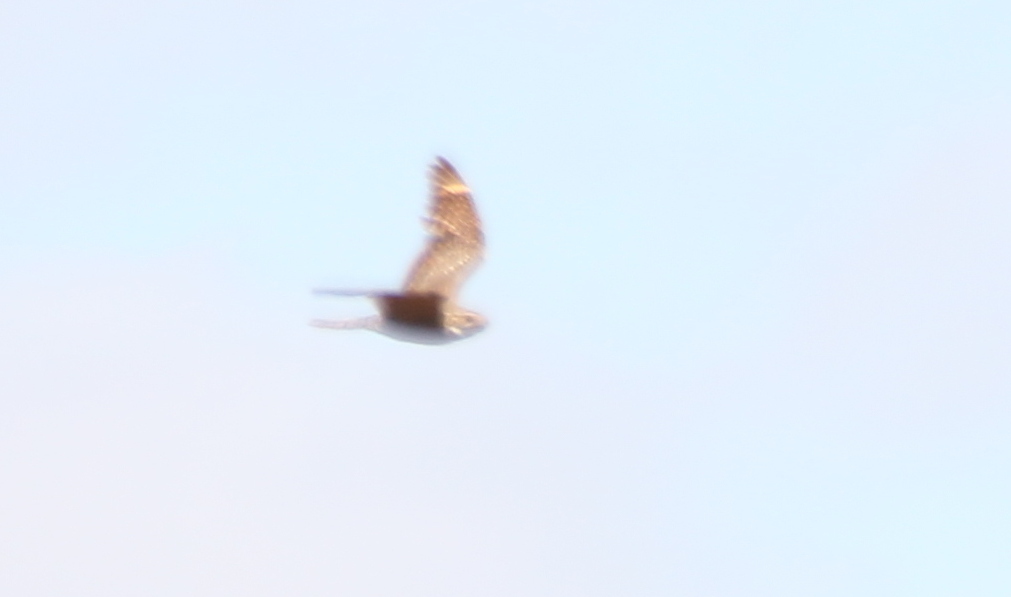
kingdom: Animalia
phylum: Chordata
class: Aves
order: Caprimulgiformes
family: Caprimulgidae
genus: Chordeiles
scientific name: Chordeiles acutipennis
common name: Lesser nighthawk
